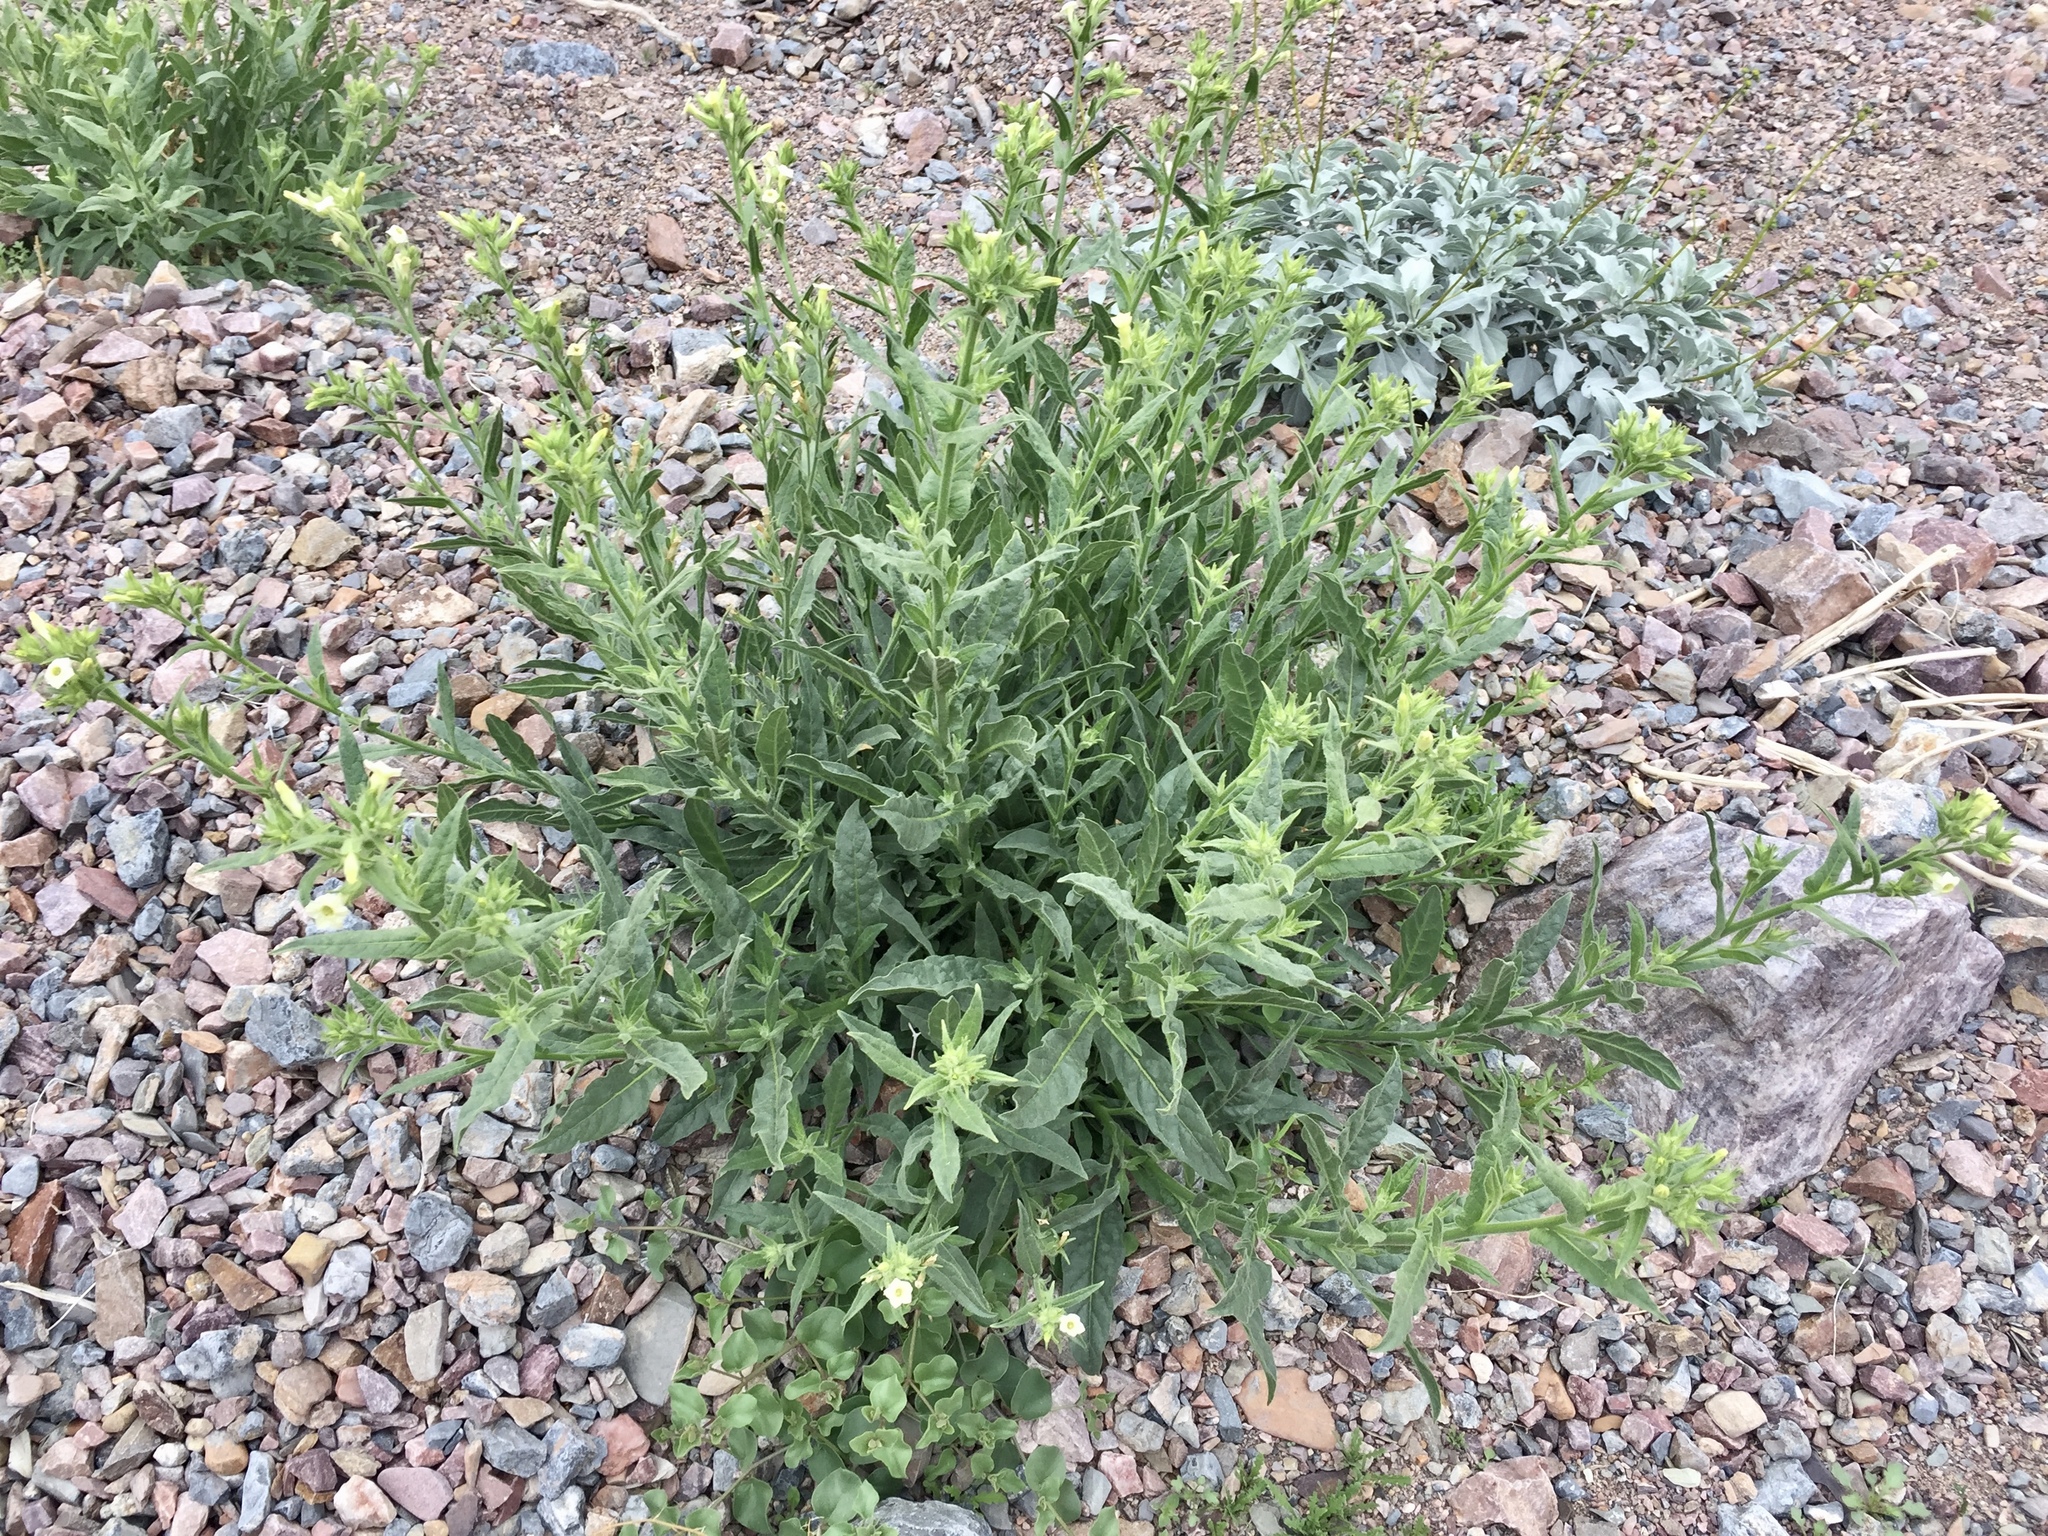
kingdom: Plantae
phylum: Tracheophyta
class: Magnoliopsida
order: Solanales
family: Solanaceae
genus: Nicotiana
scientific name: Nicotiana obtusifolia
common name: Desert tobacco
